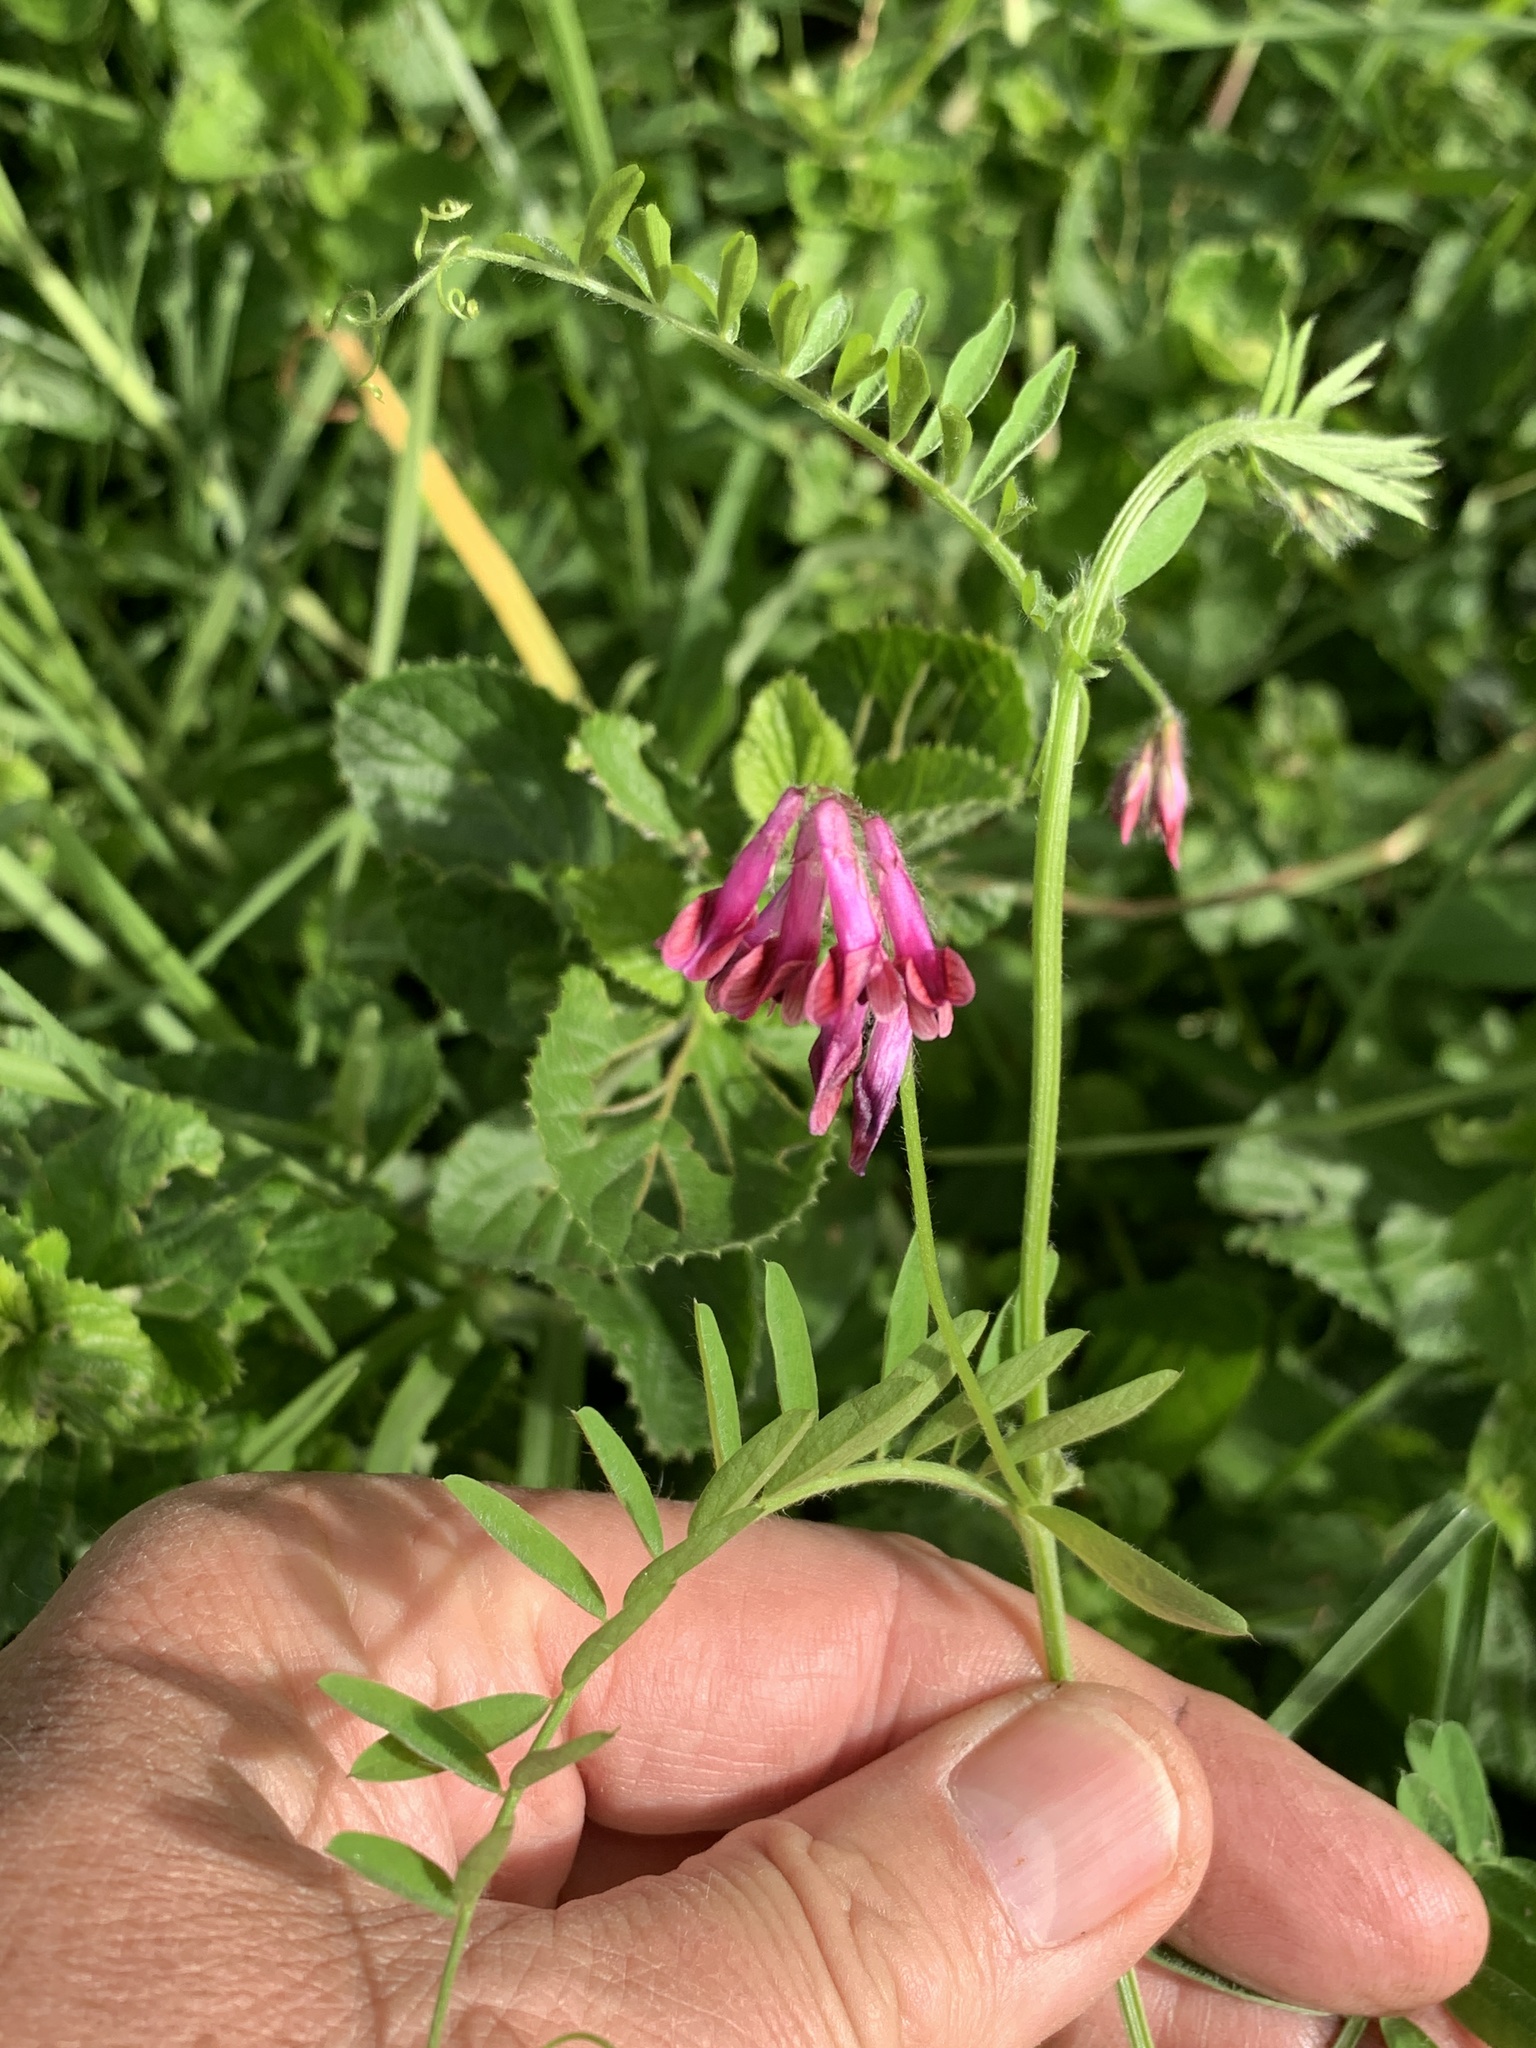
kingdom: Plantae
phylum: Tracheophyta
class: Magnoliopsida
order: Fabales
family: Fabaceae
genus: Vicia
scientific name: Vicia benghalensis
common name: Purple vetch
